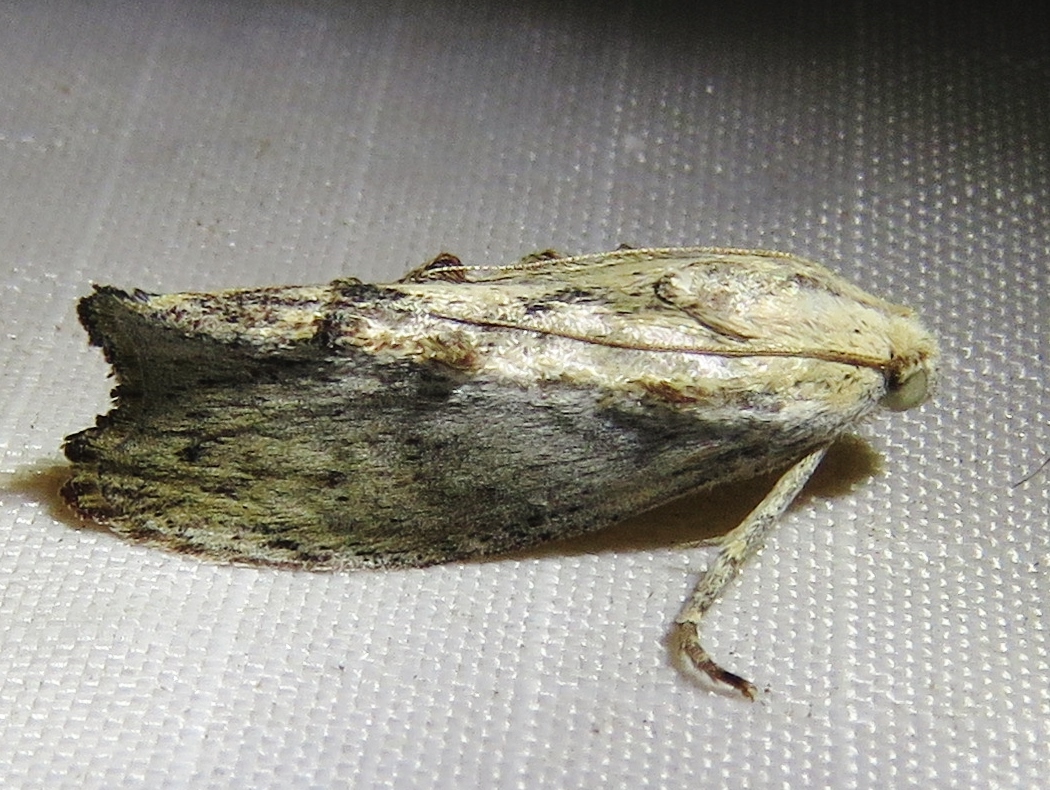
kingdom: Animalia
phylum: Arthropoda
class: Insecta
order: Lepidoptera
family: Pyralidae
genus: Galleria
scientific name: Galleria mellonella
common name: Greater wax moth
